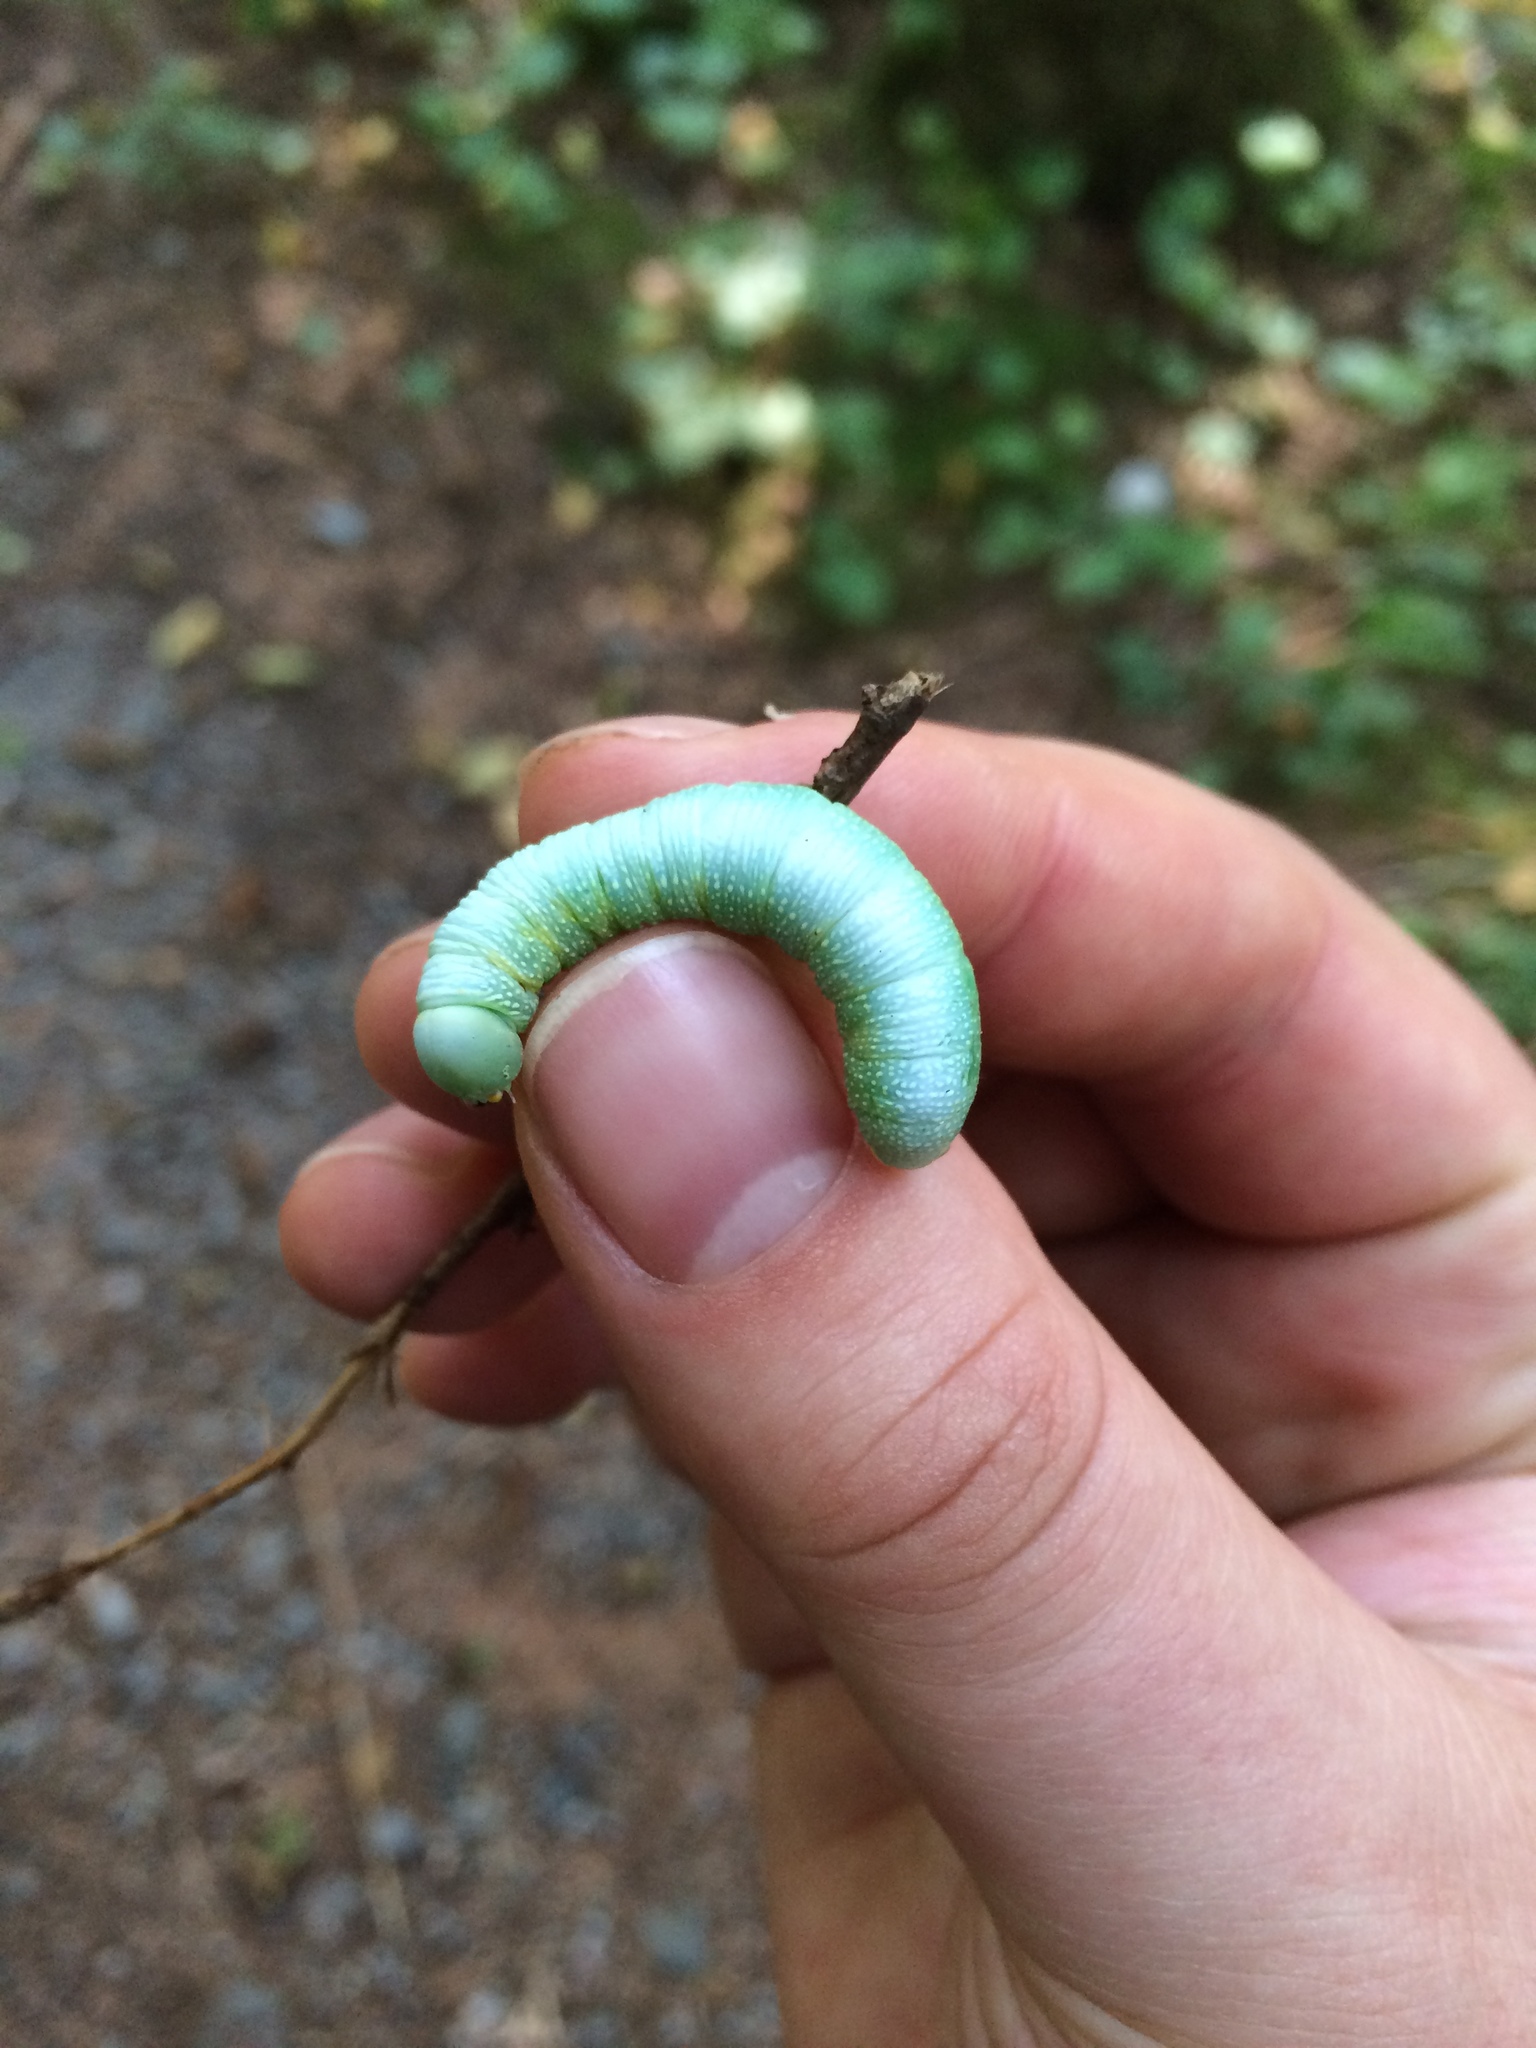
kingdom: Animalia
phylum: Arthropoda
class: Insecta
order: Lepidoptera
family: Notodontidae
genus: Nadata
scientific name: Nadata gibbosa
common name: White-dotted prominent
